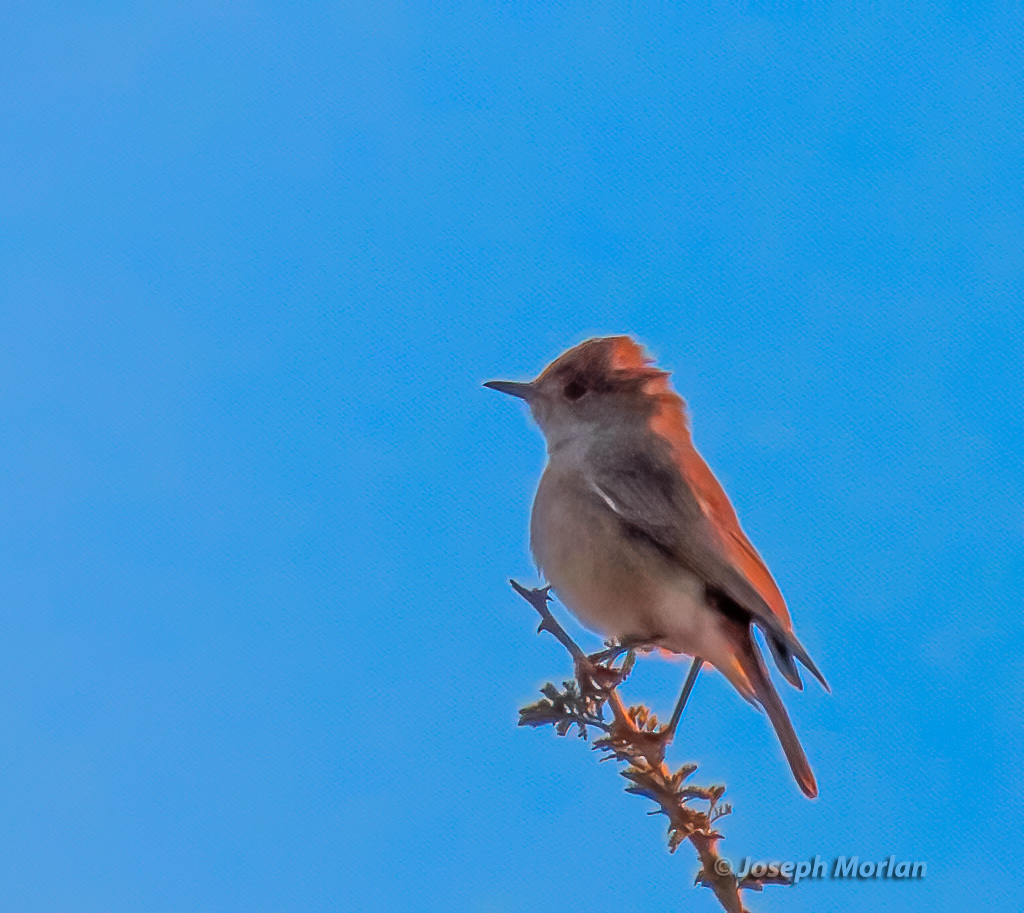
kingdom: Animalia
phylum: Chordata
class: Aves
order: Passeriformes
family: Muscicapidae
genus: Oenanthe
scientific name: Oenanthe familiaris
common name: Familiar chat
